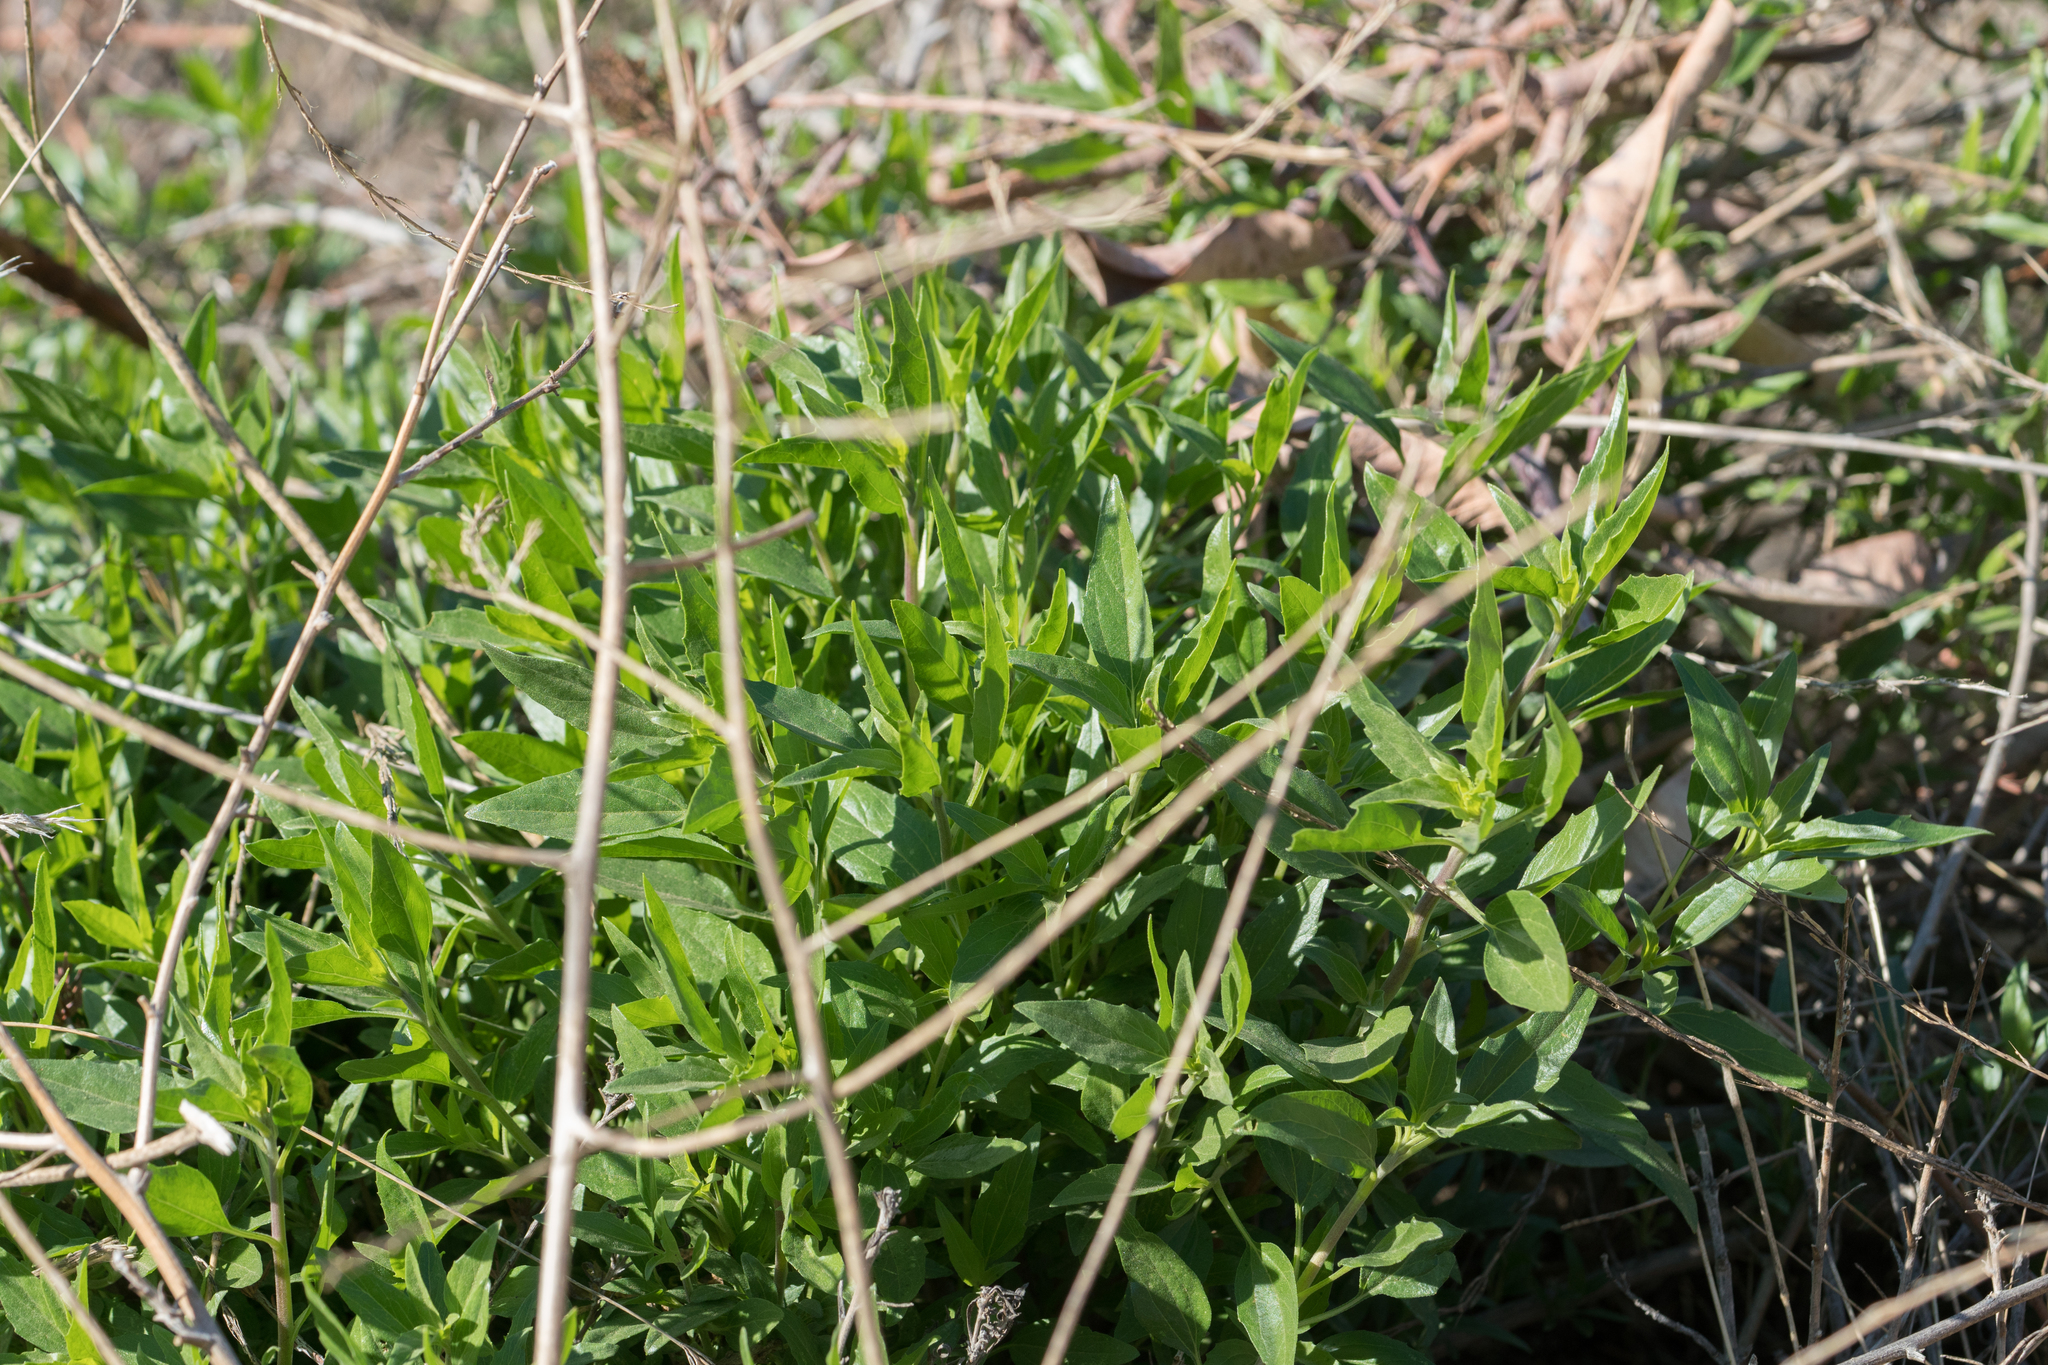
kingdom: Plantae
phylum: Tracheophyta
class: Magnoliopsida
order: Asterales
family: Asteraceae
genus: Encelia
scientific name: Encelia californica
